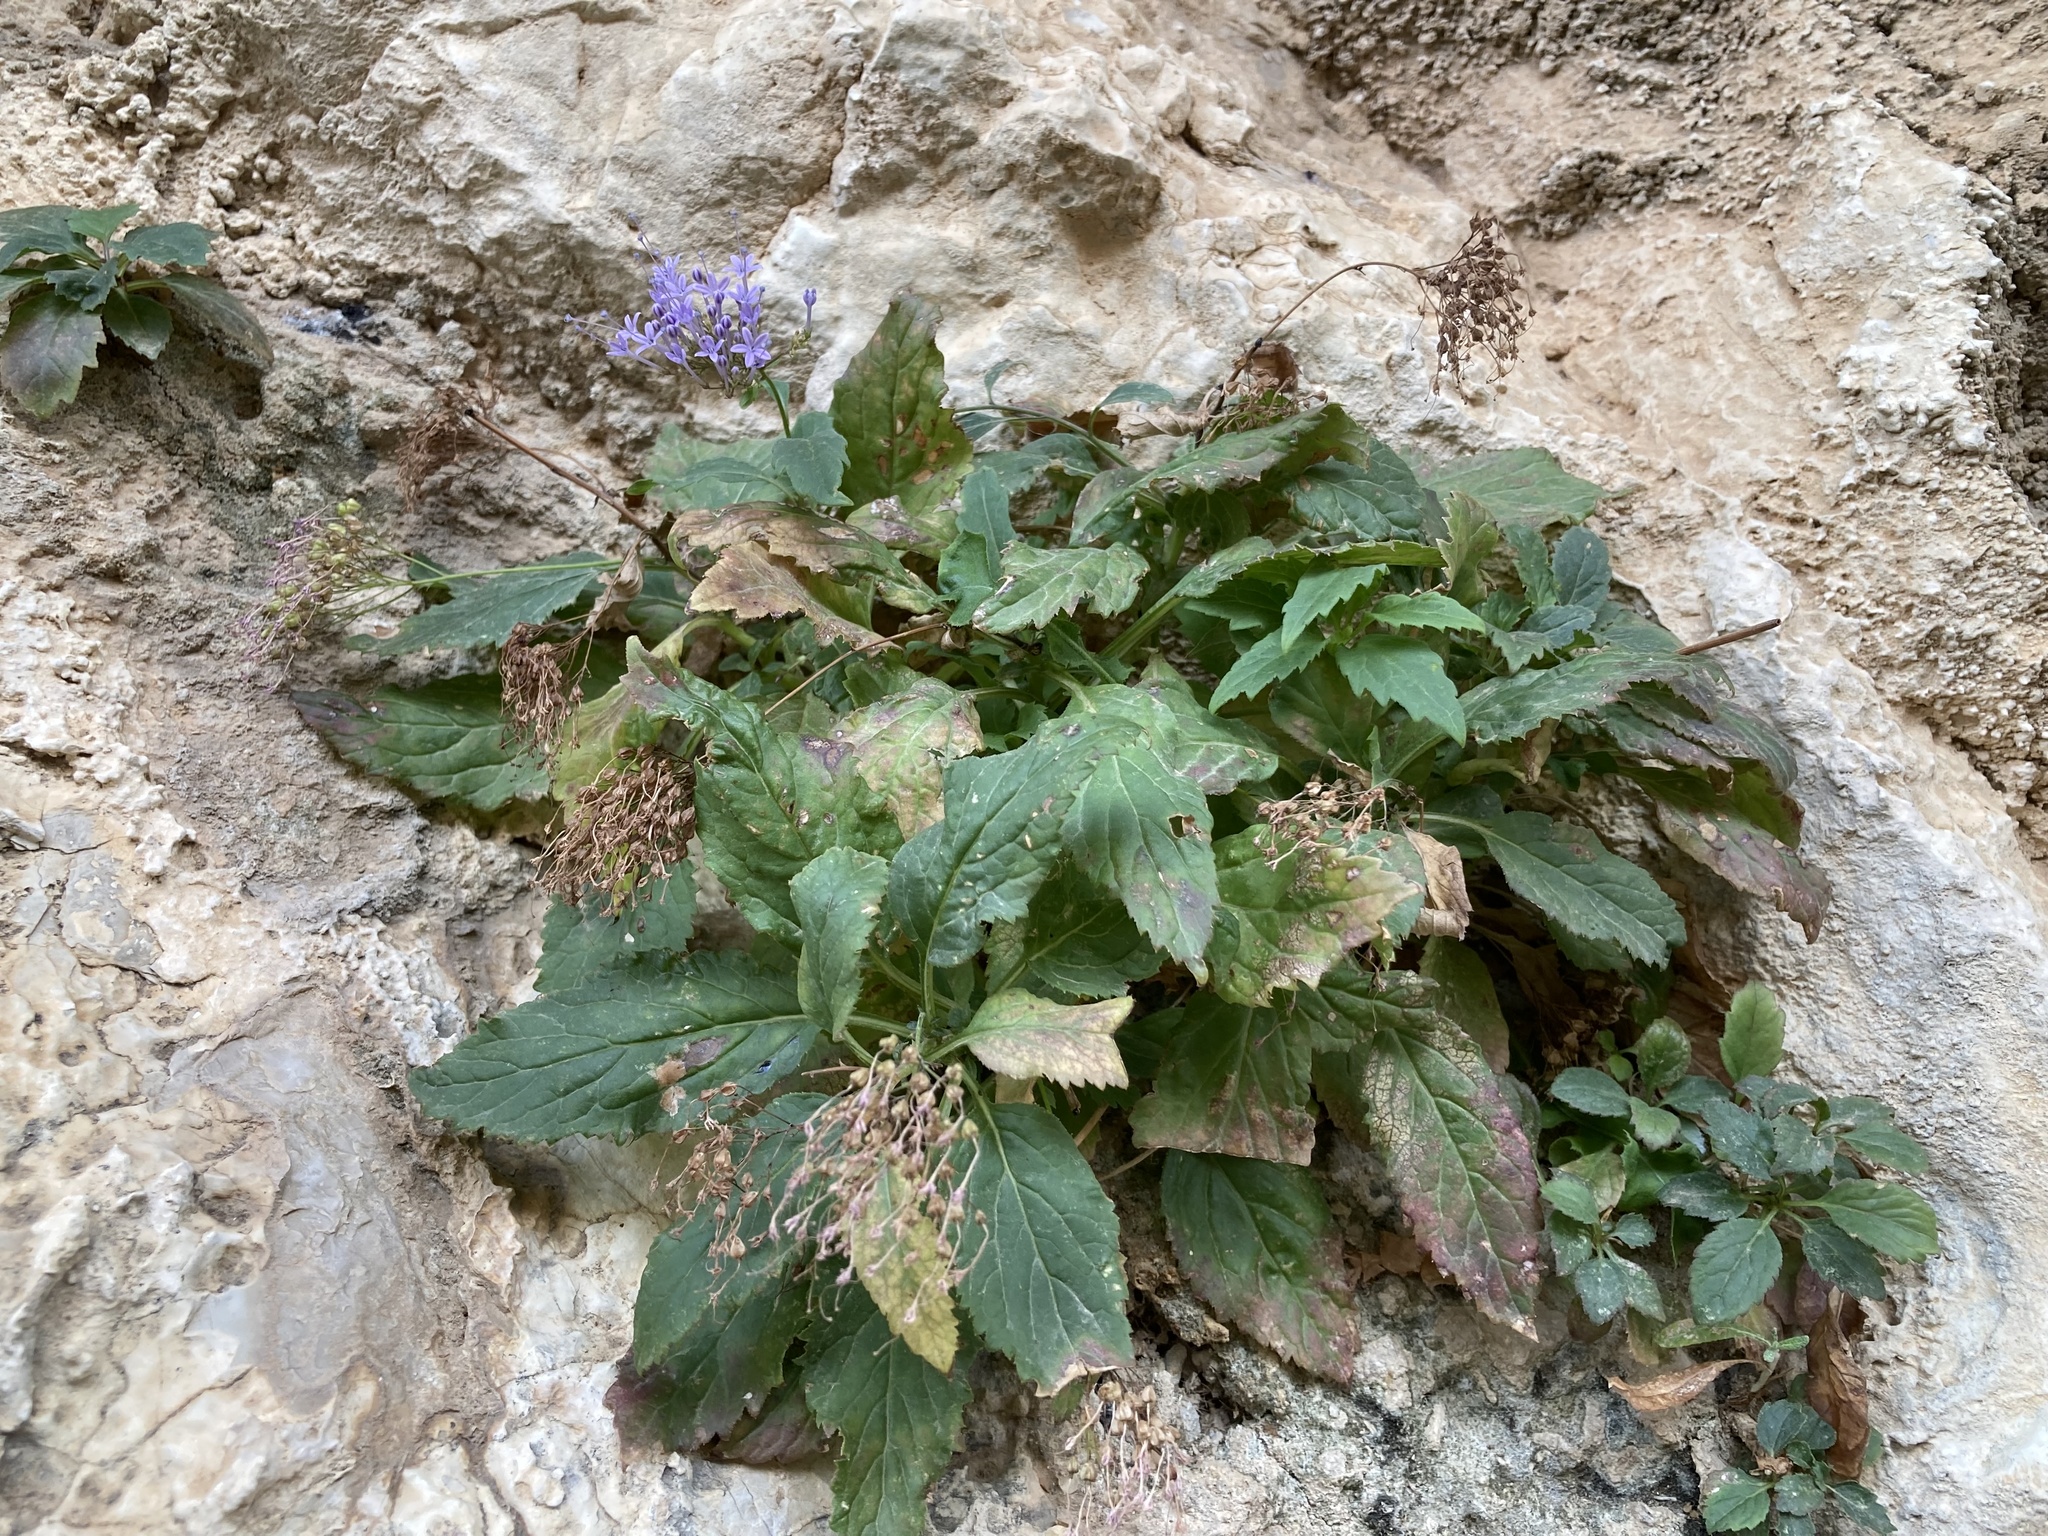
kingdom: Plantae
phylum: Tracheophyta
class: Magnoliopsida
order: Asterales
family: Campanulaceae
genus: Trachelium
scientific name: Trachelium caeruleum
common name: Throatwort
